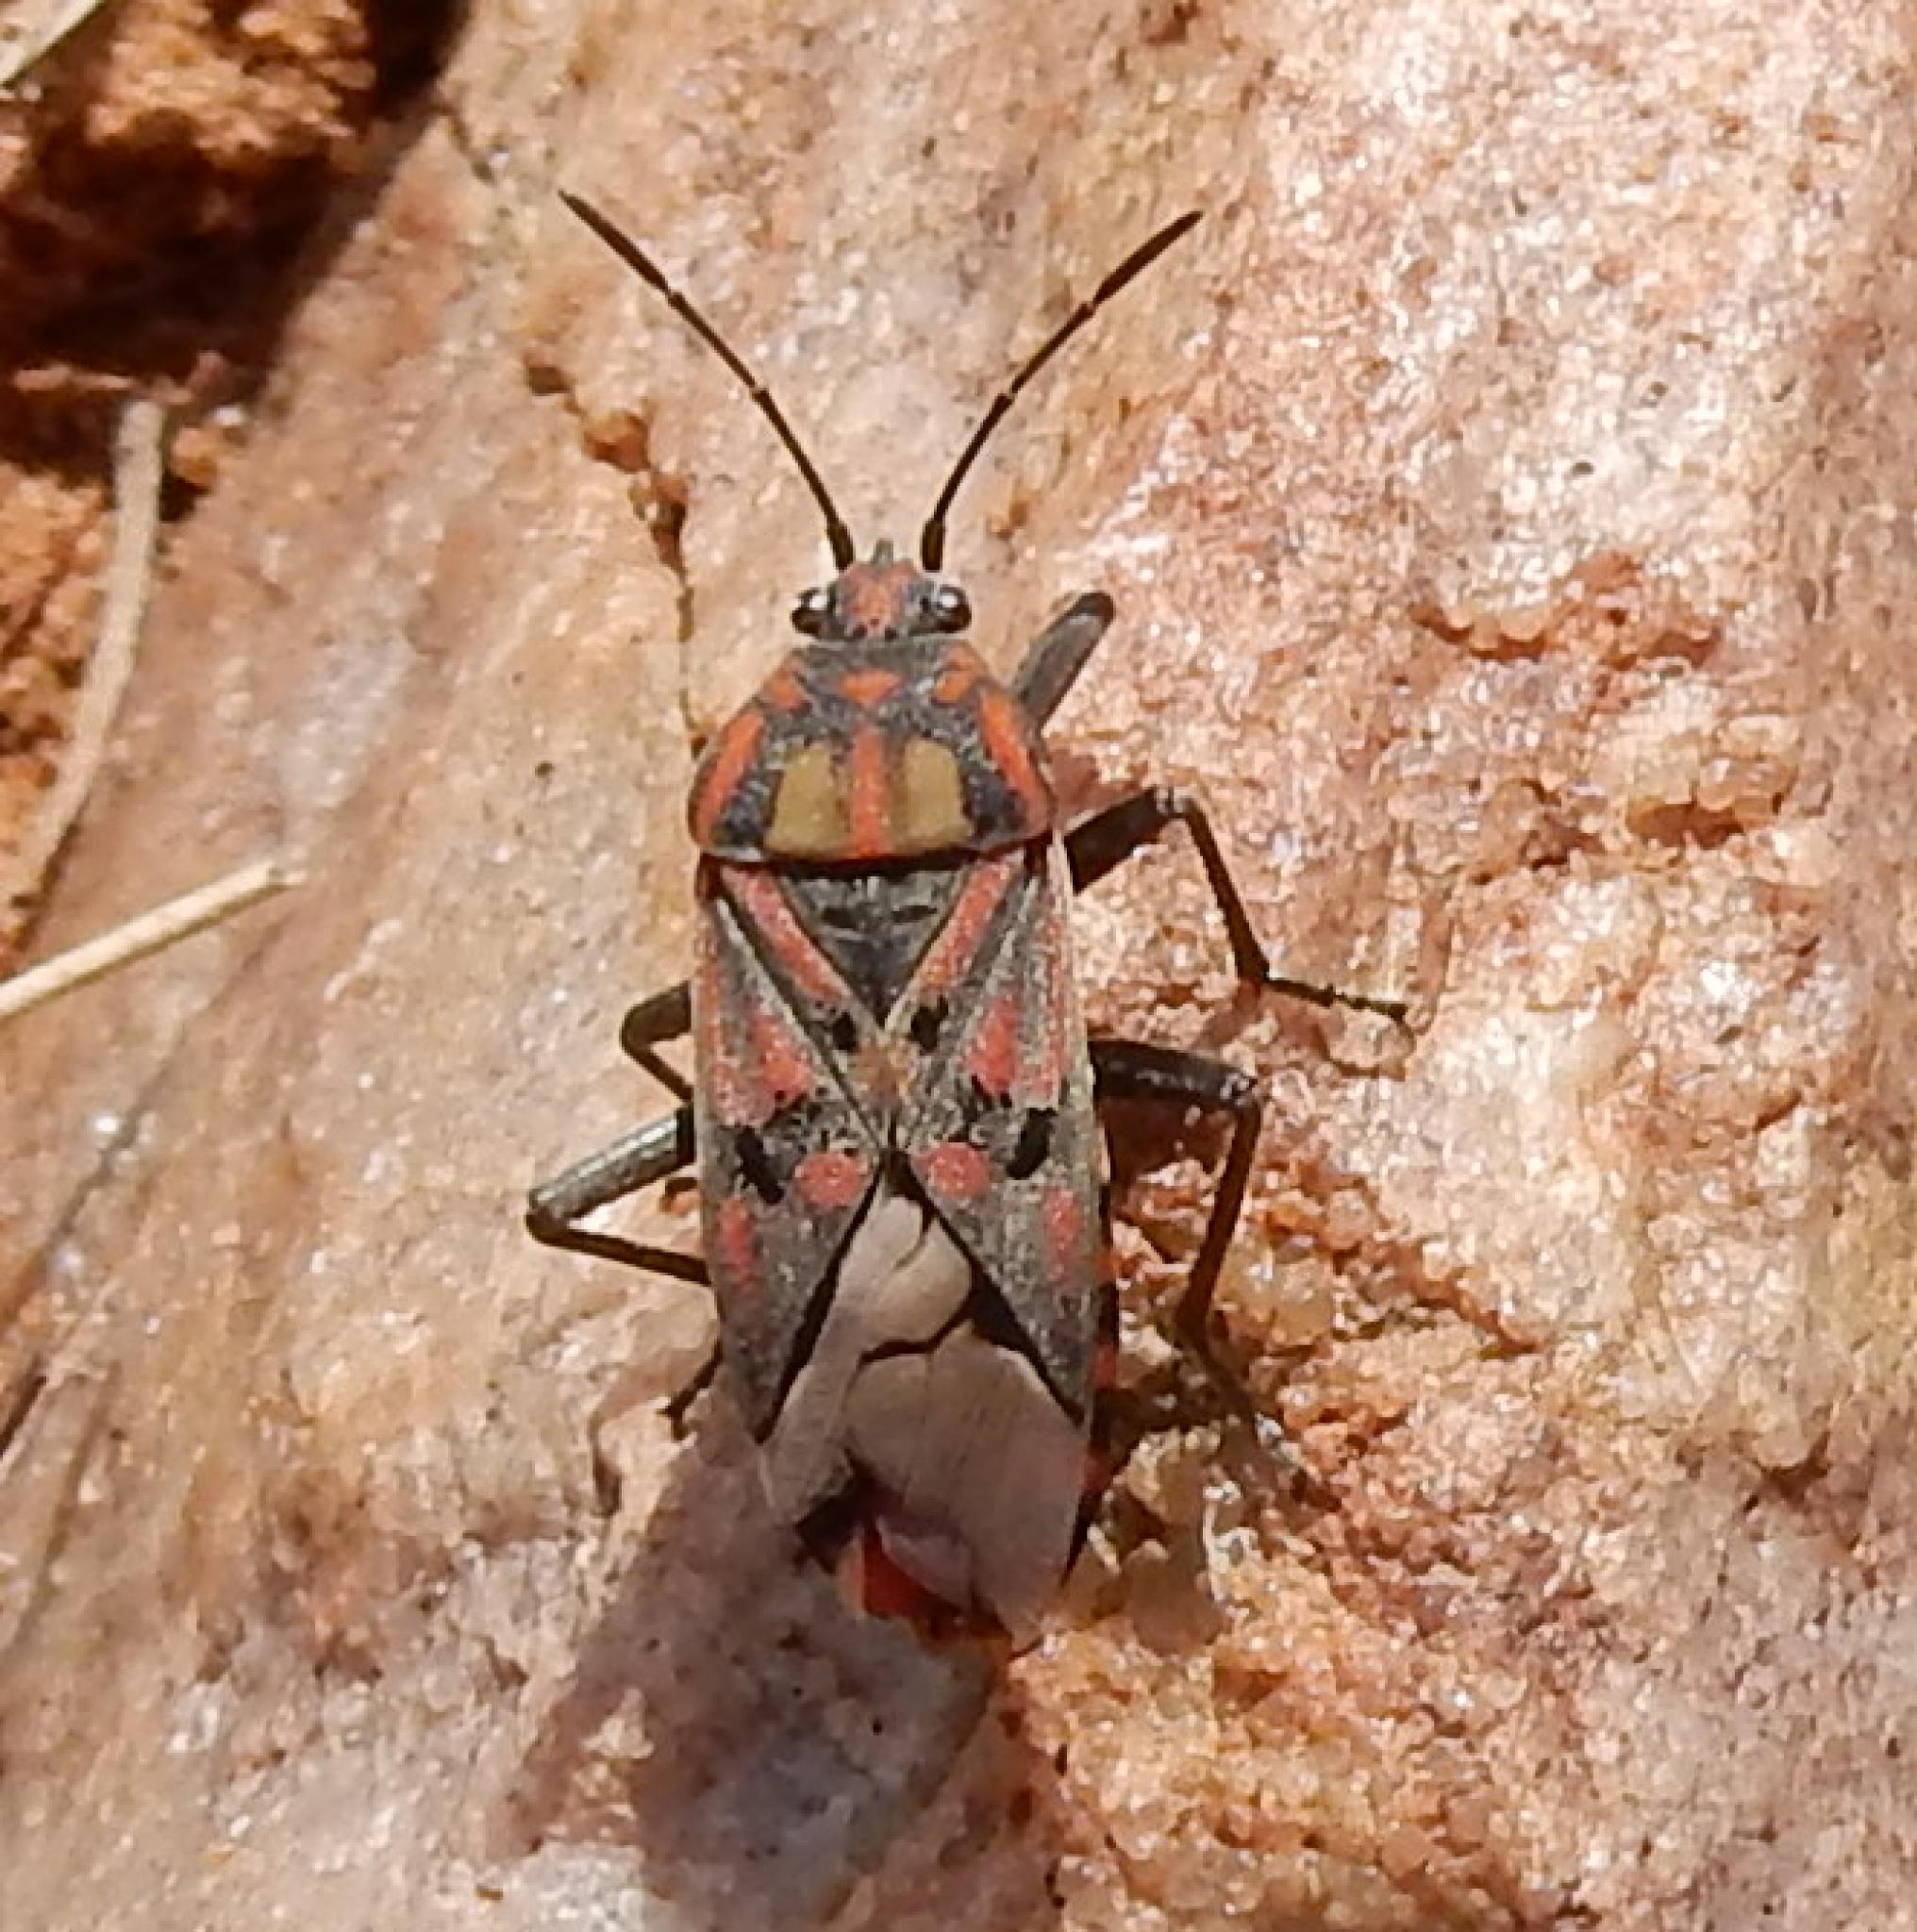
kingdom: Animalia
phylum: Arthropoda
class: Insecta
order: Hemiptera
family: Lygaeidae
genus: Spilostethus
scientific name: Spilostethus pandurus
